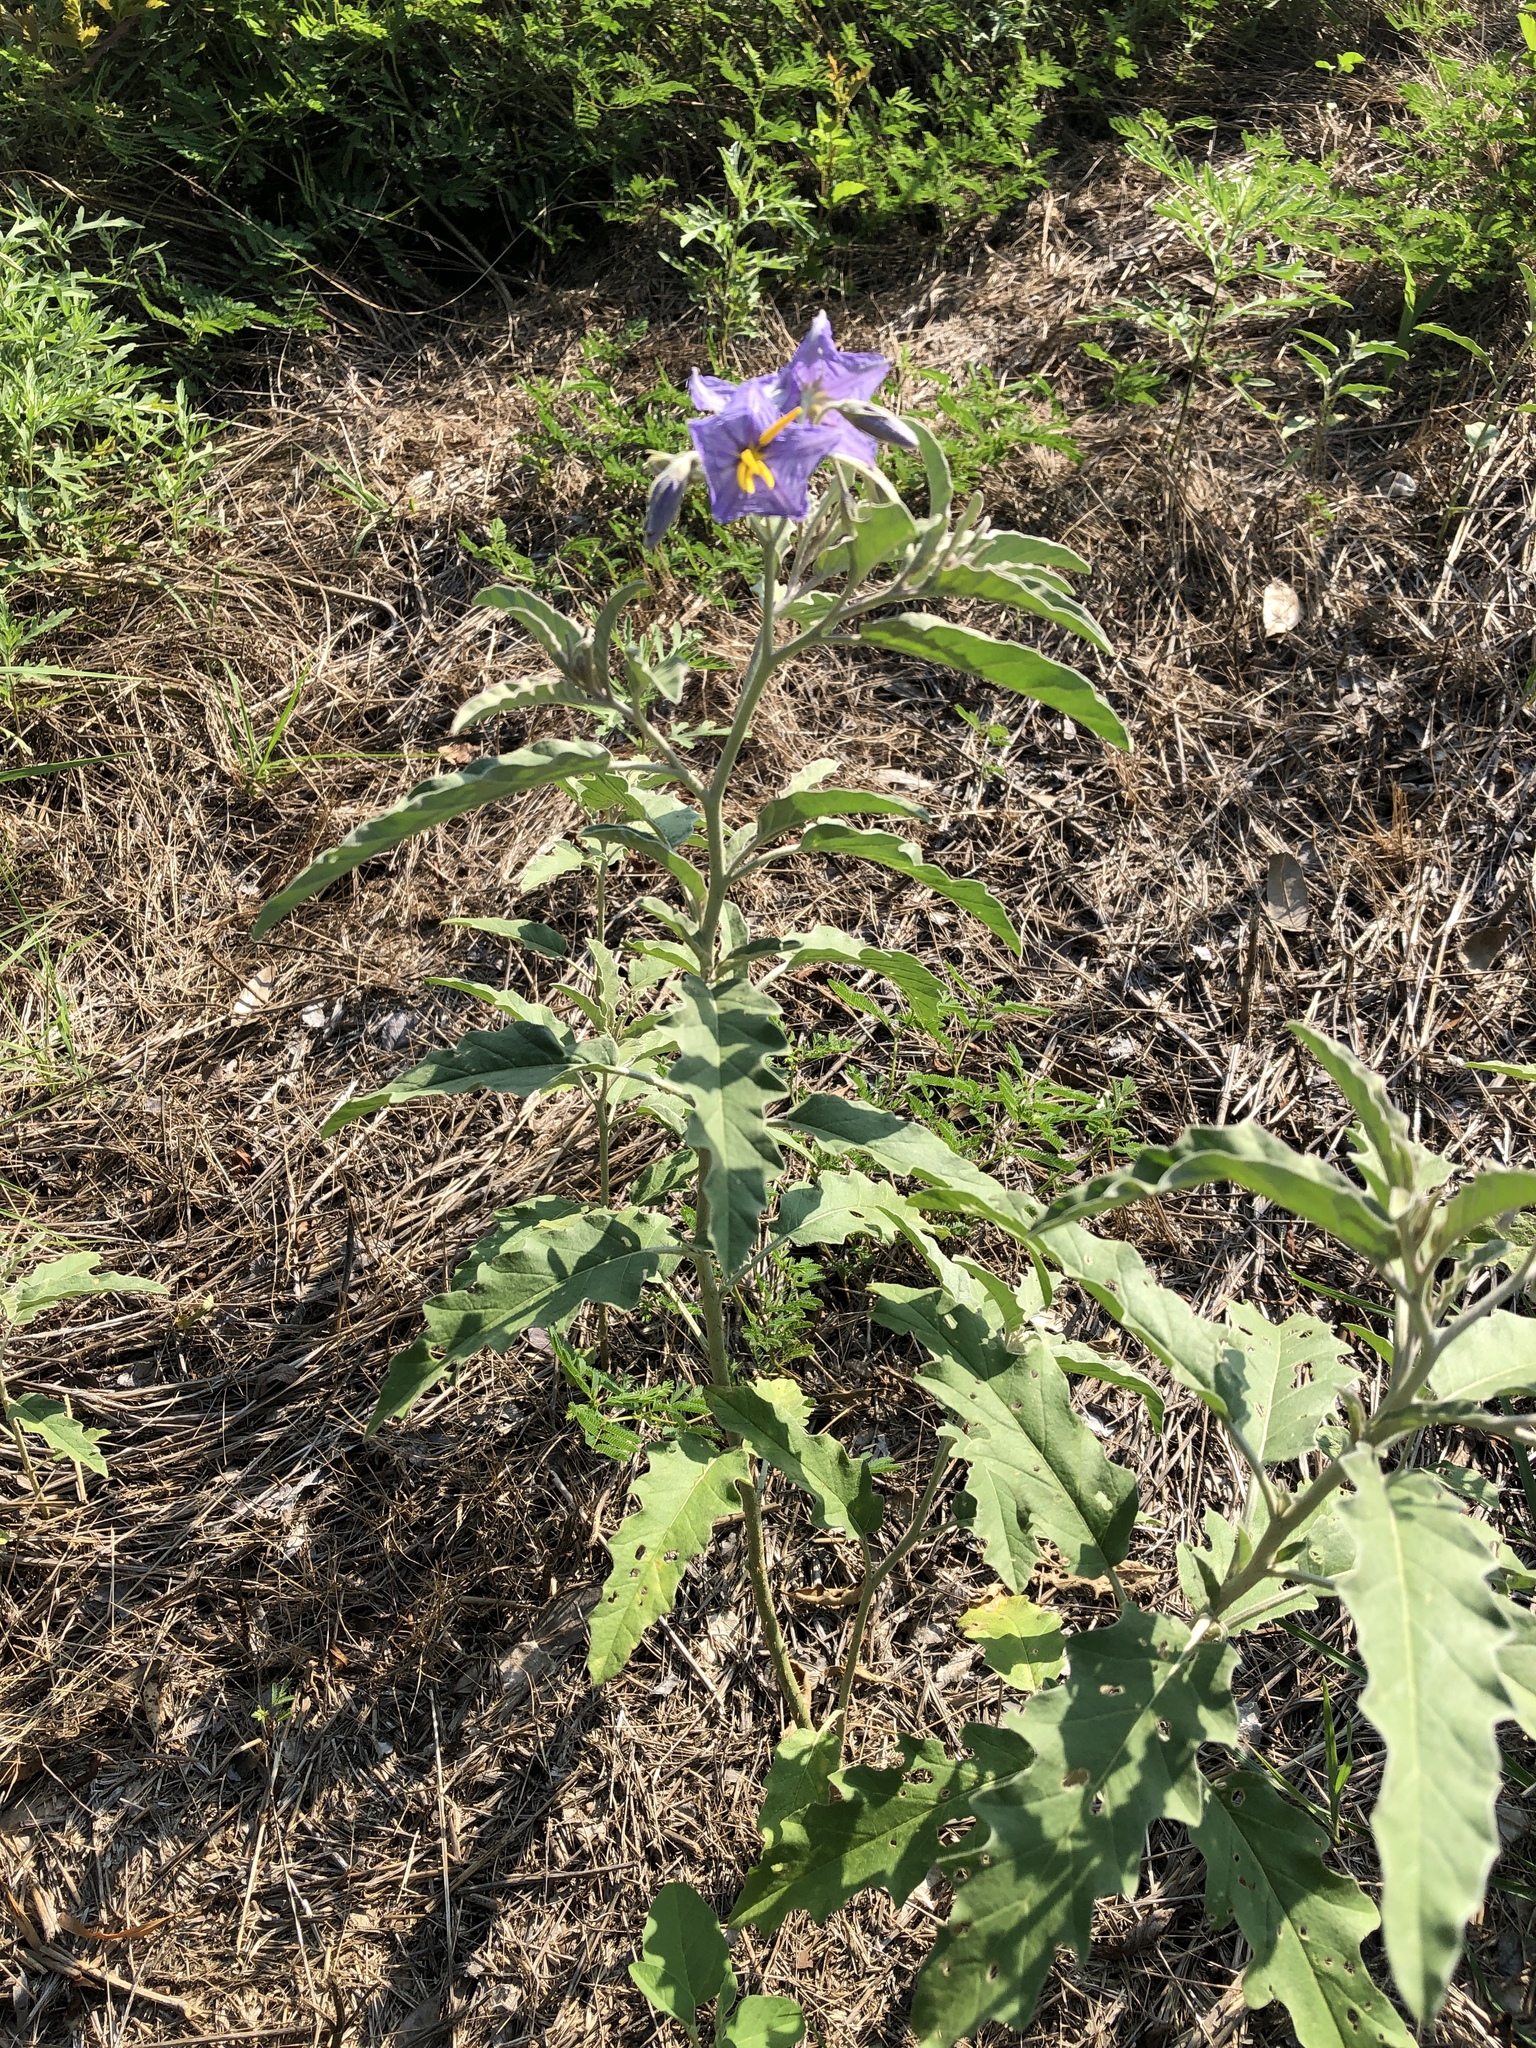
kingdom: Plantae
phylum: Tracheophyta
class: Magnoliopsida
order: Solanales
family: Solanaceae
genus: Solanum
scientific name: Solanum elaeagnifolium
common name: Silverleaf nightshade
